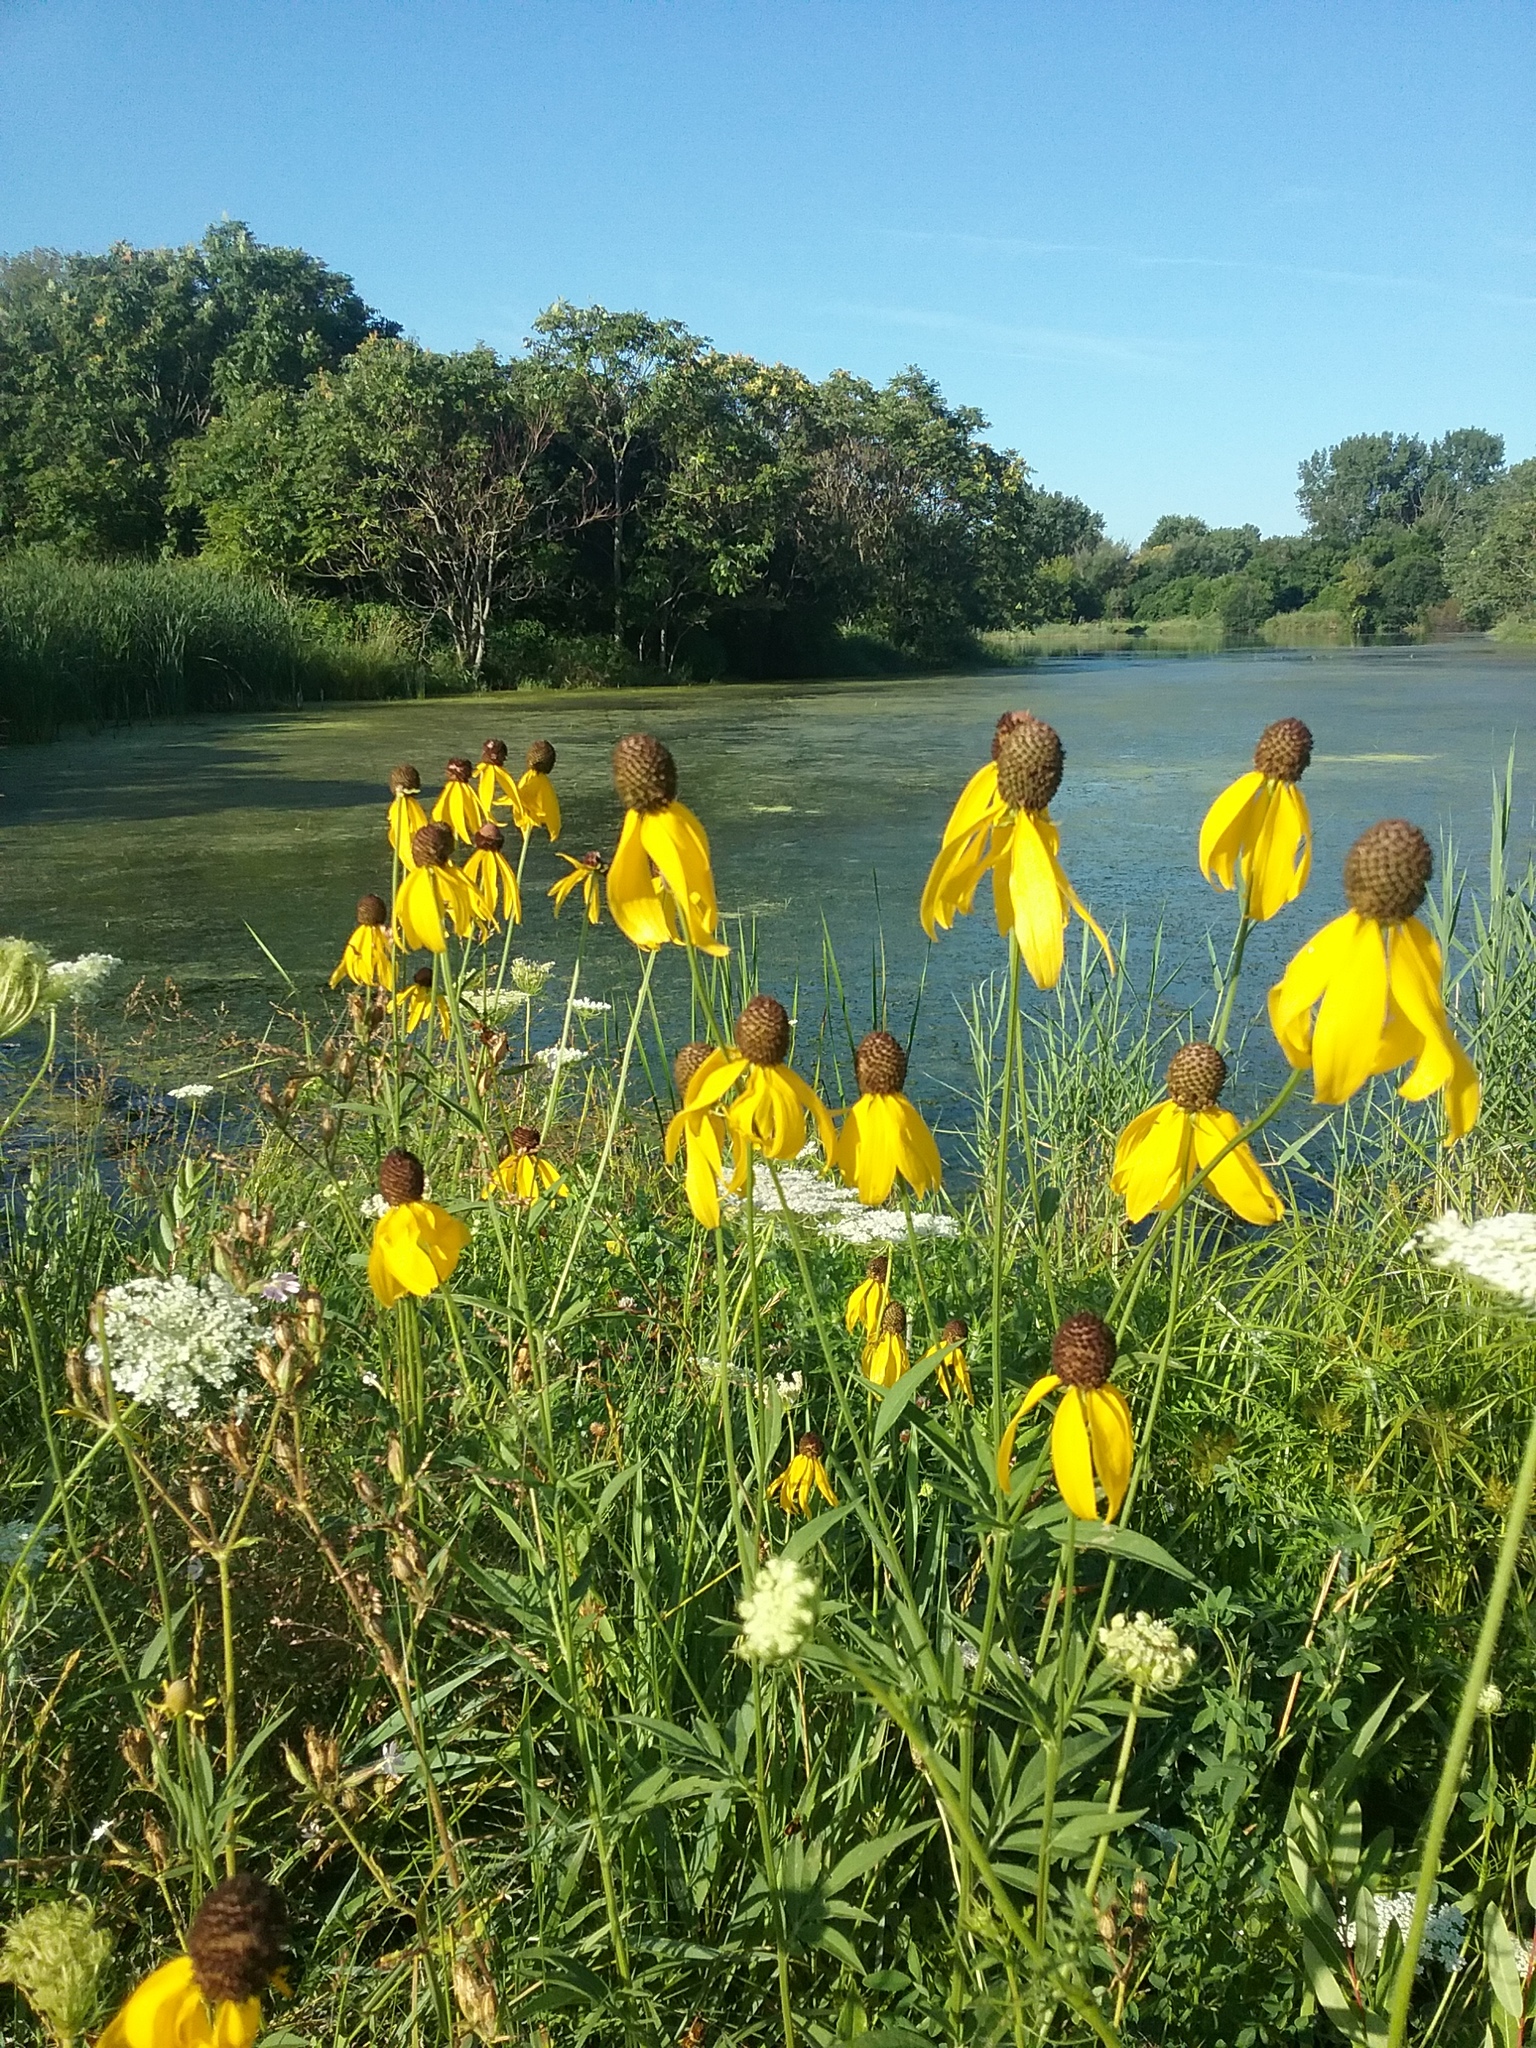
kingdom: Plantae
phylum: Tracheophyta
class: Magnoliopsida
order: Asterales
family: Asteraceae
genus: Ratibida
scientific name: Ratibida pinnata
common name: Drooping prairie-coneflower
